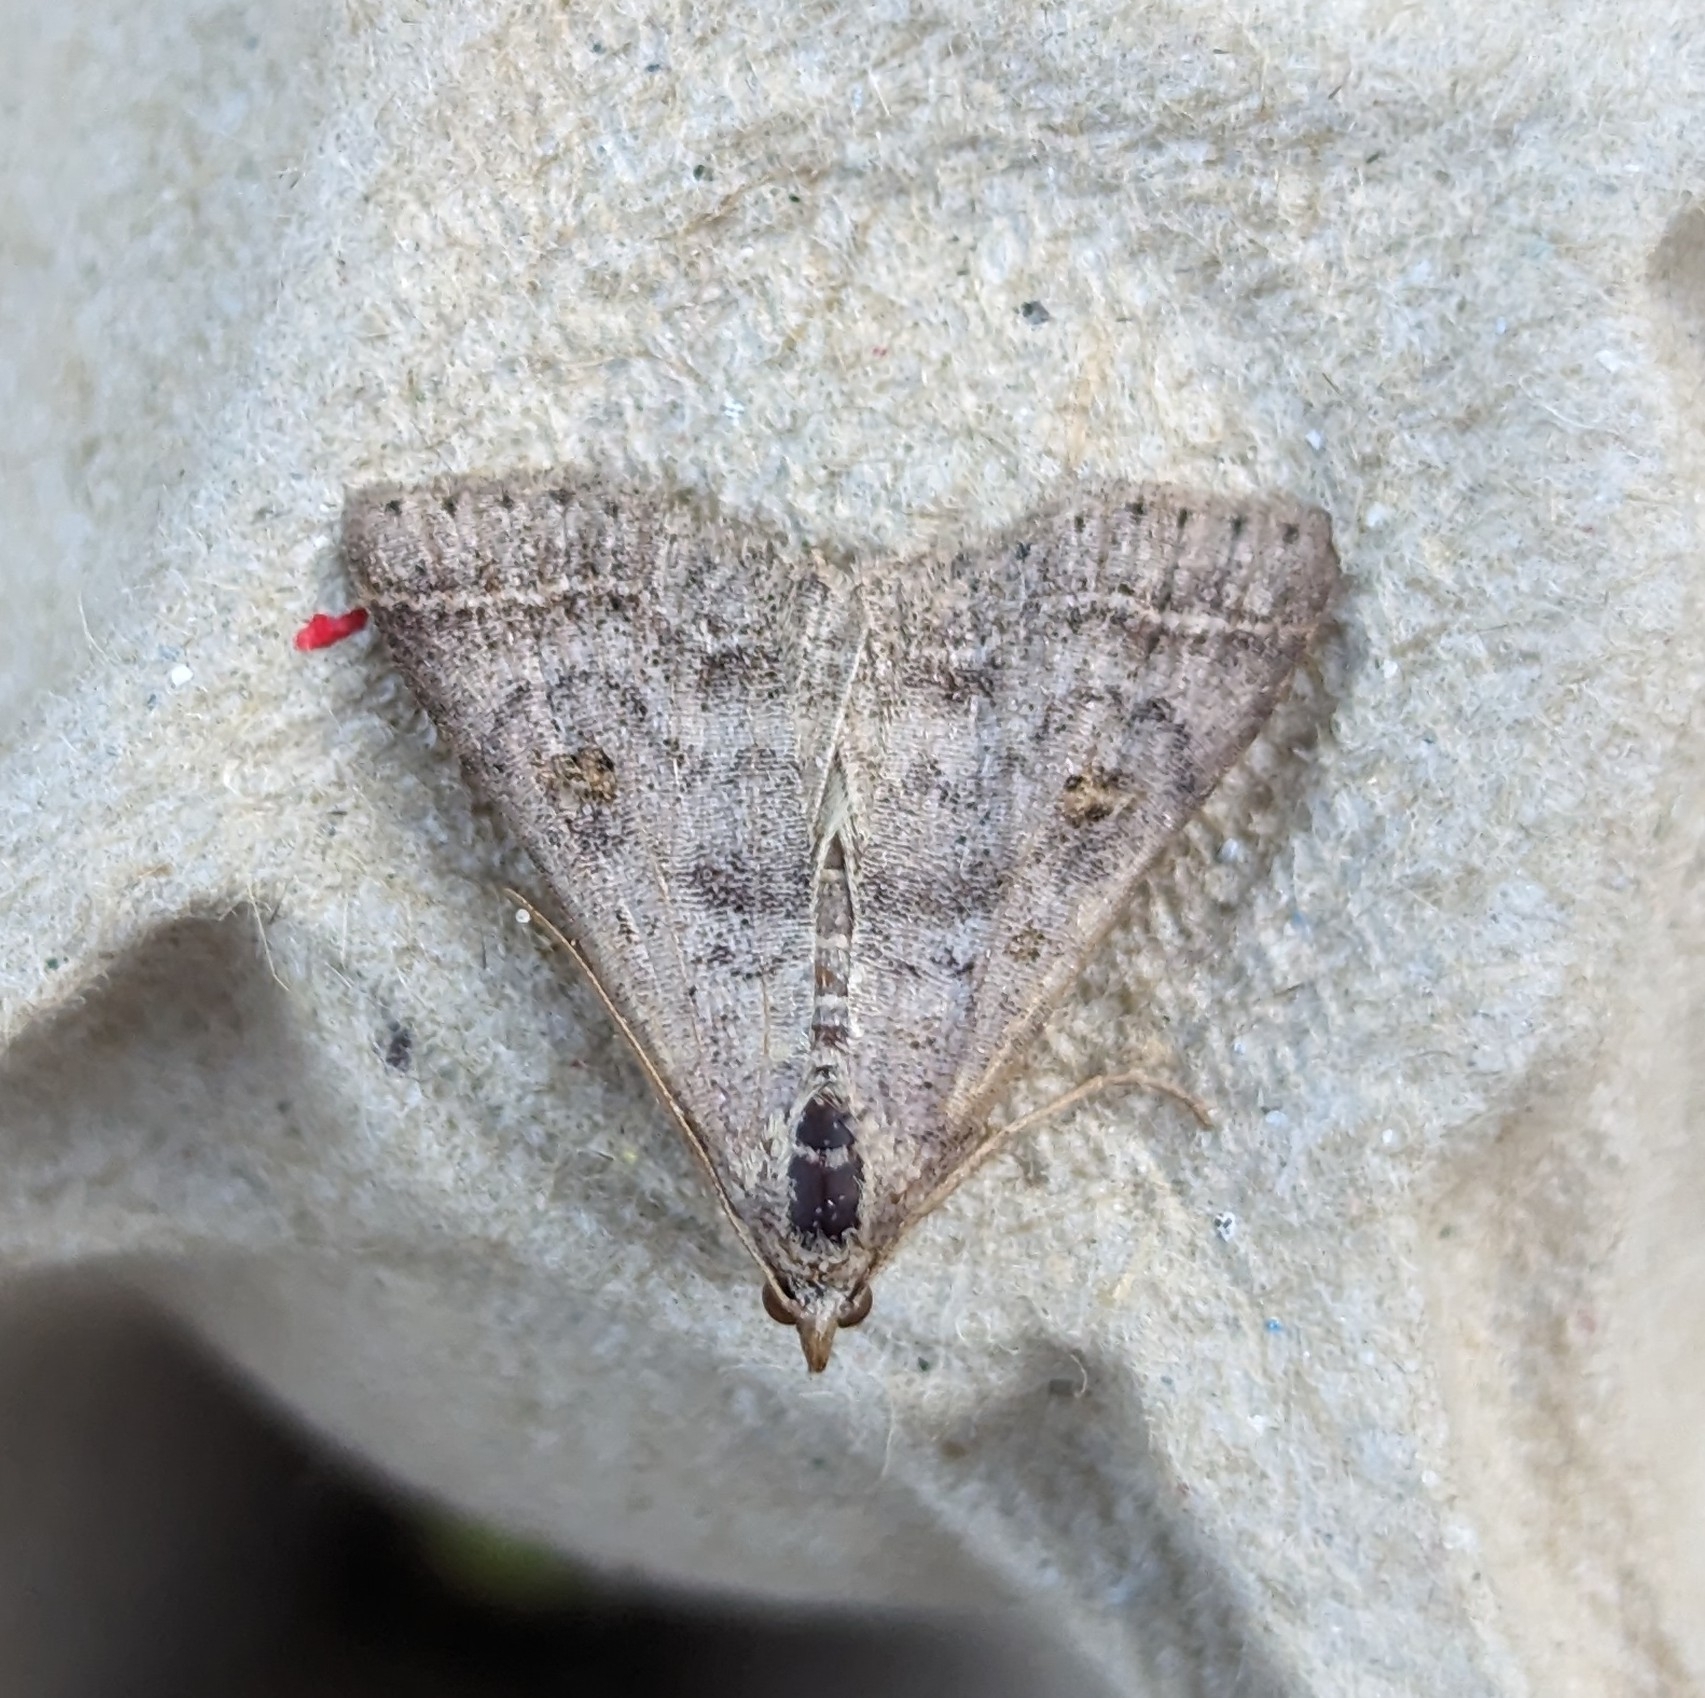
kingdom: Animalia
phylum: Arthropoda
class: Insecta
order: Lepidoptera
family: Erebidae
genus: Bleptina
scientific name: Bleptina caradrinalis
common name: Bent-winged owlet
